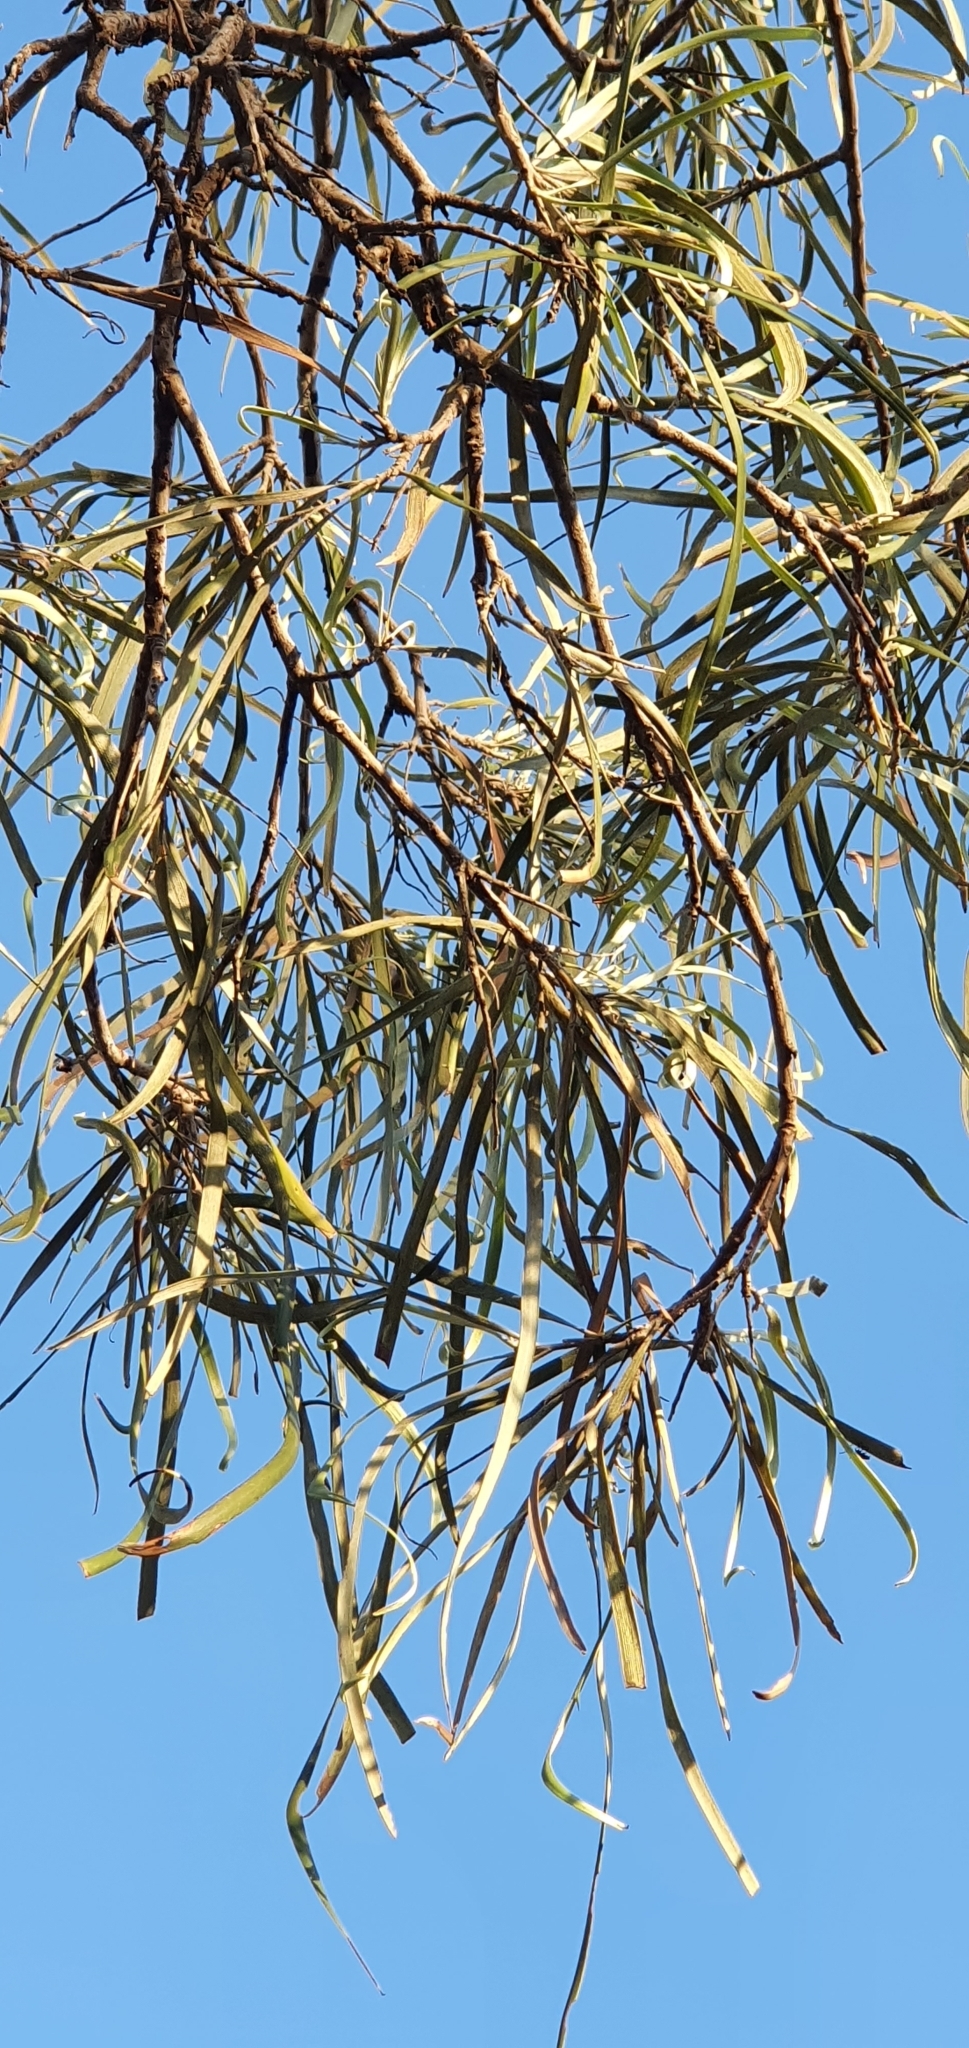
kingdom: Plantae
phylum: Tracheophyta
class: Magnoliopsida
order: Proteales
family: Proteaceae
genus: Grevillea
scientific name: Grevillea striata
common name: Beefwood
